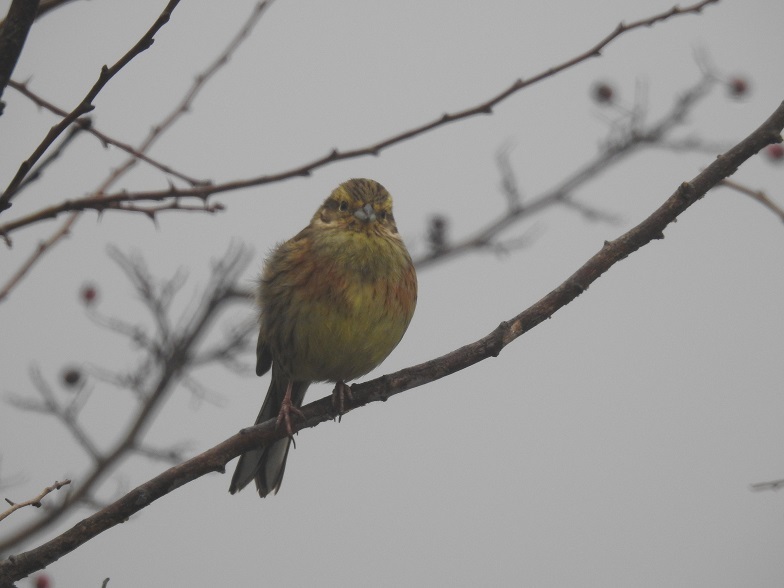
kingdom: Animalia
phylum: Chordata
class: Aves
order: Passeriformes
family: Emberizidae
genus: Emberiza
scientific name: Emberiza cirlus
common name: Cirl bunting
